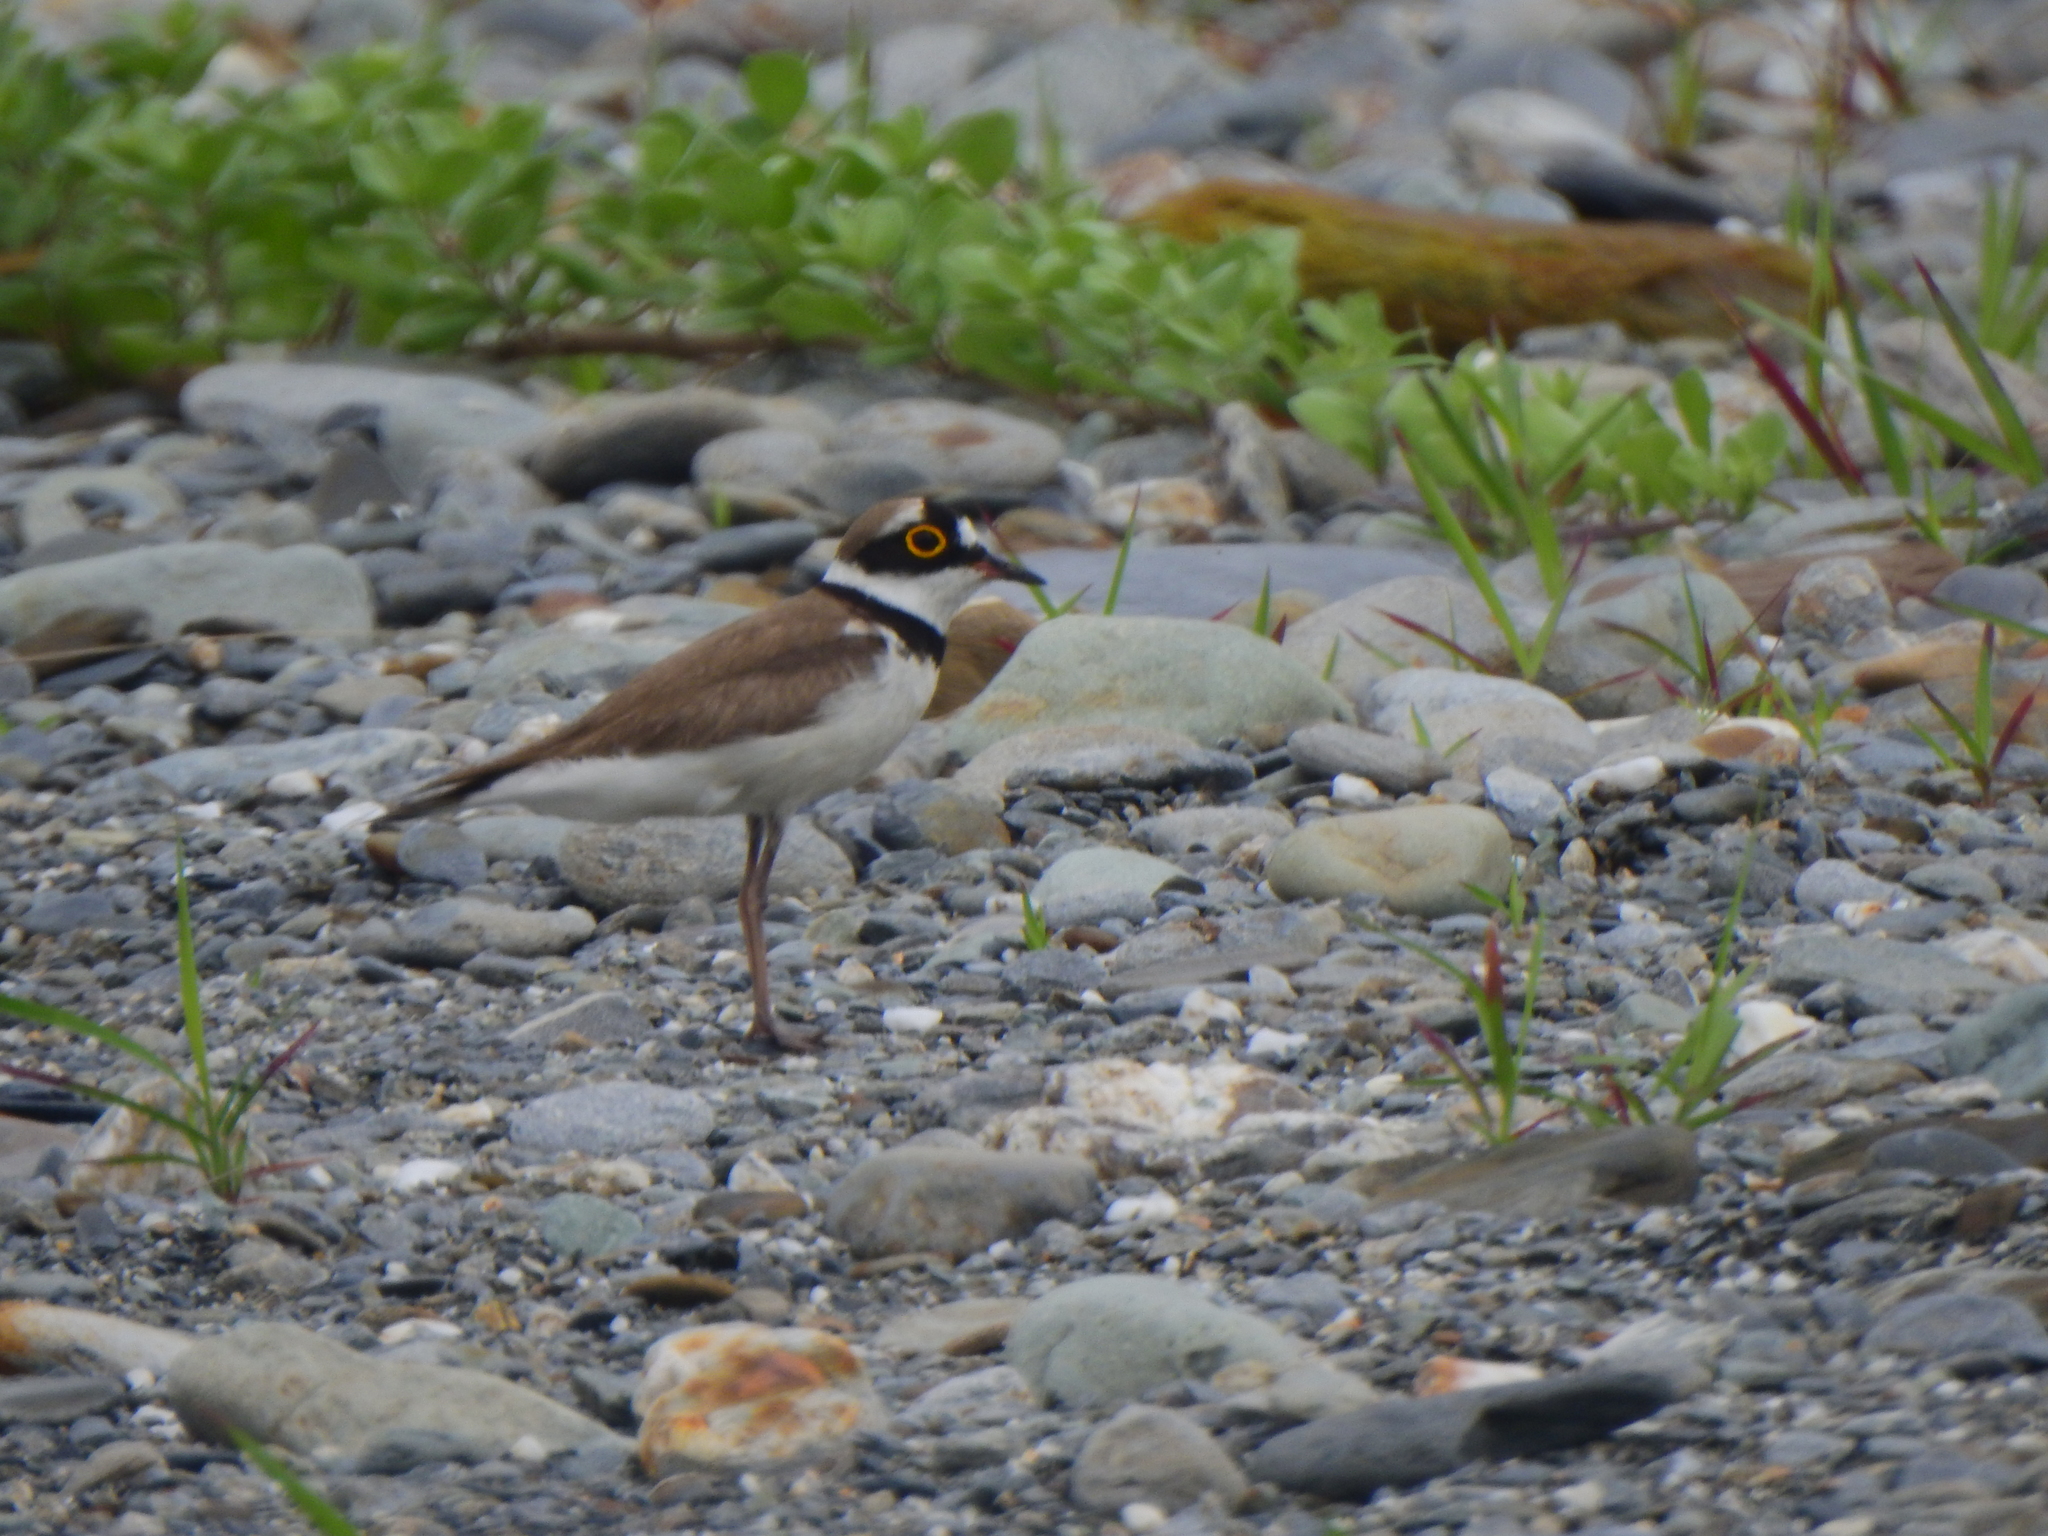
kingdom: Animalia
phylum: Chordata
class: Aves
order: Charadriiformes
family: Charadriidae
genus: Charadrius
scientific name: Charadrius dubius
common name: Little ringed plover
